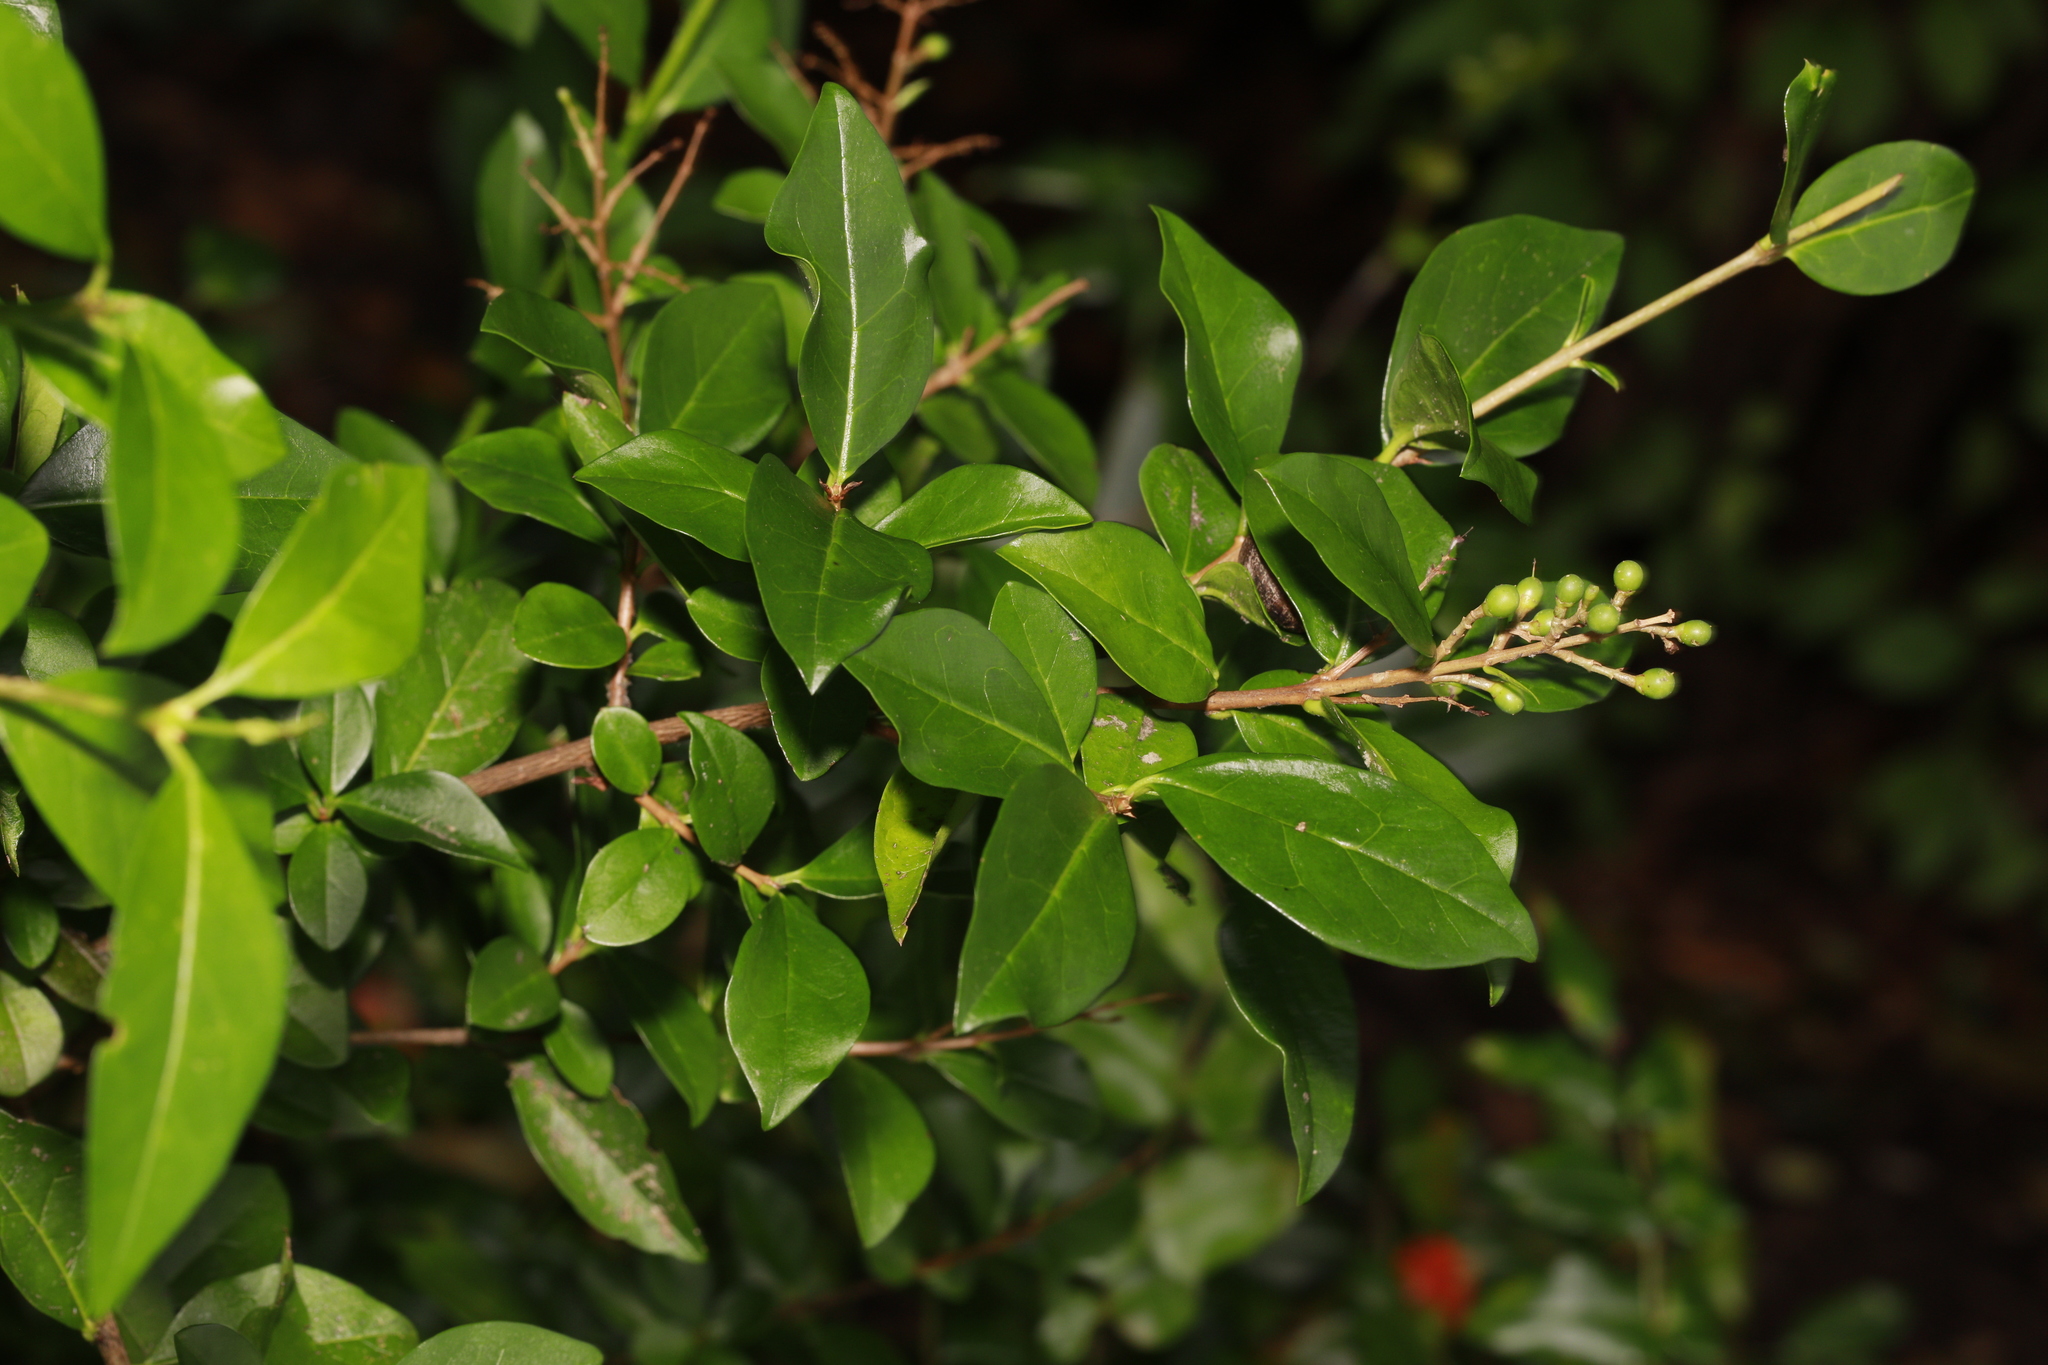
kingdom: Plantae
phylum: Tracheophyta
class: Magnoliopsida
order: Lamiales
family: Oleaceae
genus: Ligustrum
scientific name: Ligustrum ovalifolium
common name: California privet
